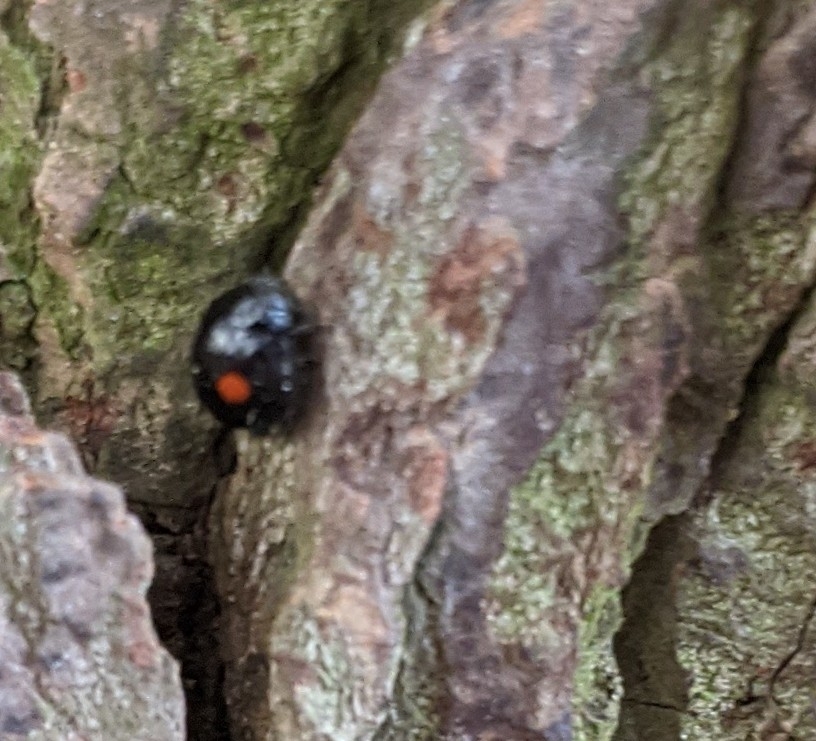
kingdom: Animalia
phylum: Arthropoda
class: Insecta
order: Coleoptera
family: Coccinellidae
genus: Chilocorus
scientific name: Chilocorus stigma
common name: Twicestabbed lady beetle
